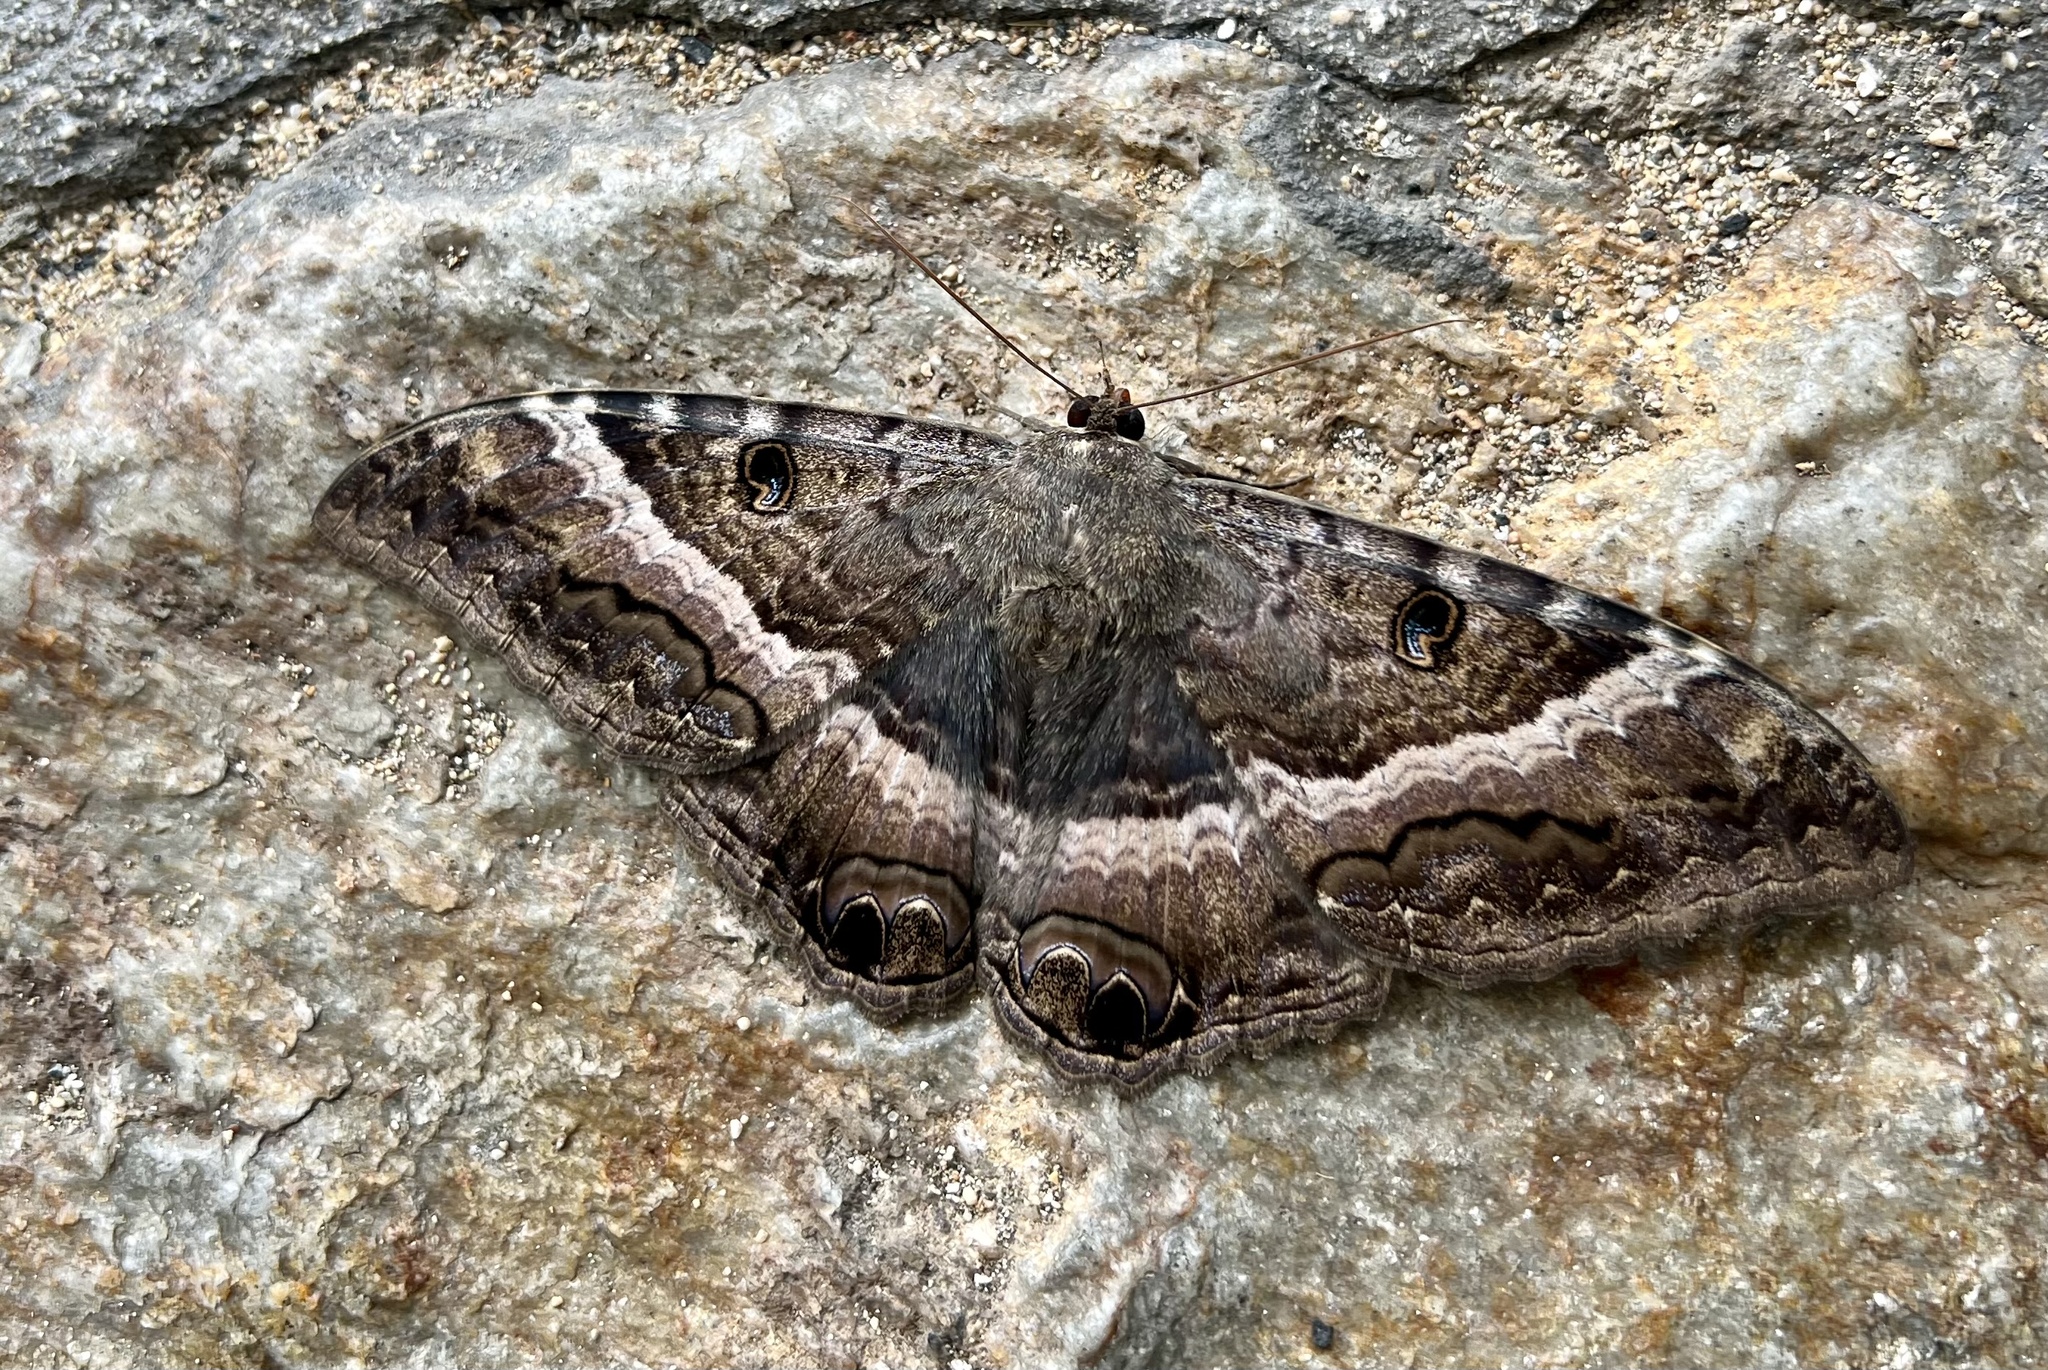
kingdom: Animalia
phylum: Arthropoda
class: Insecta
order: Lepidoptera
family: Erebidae
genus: Ascalapha
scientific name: Ascalapha odorata
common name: Black witch
